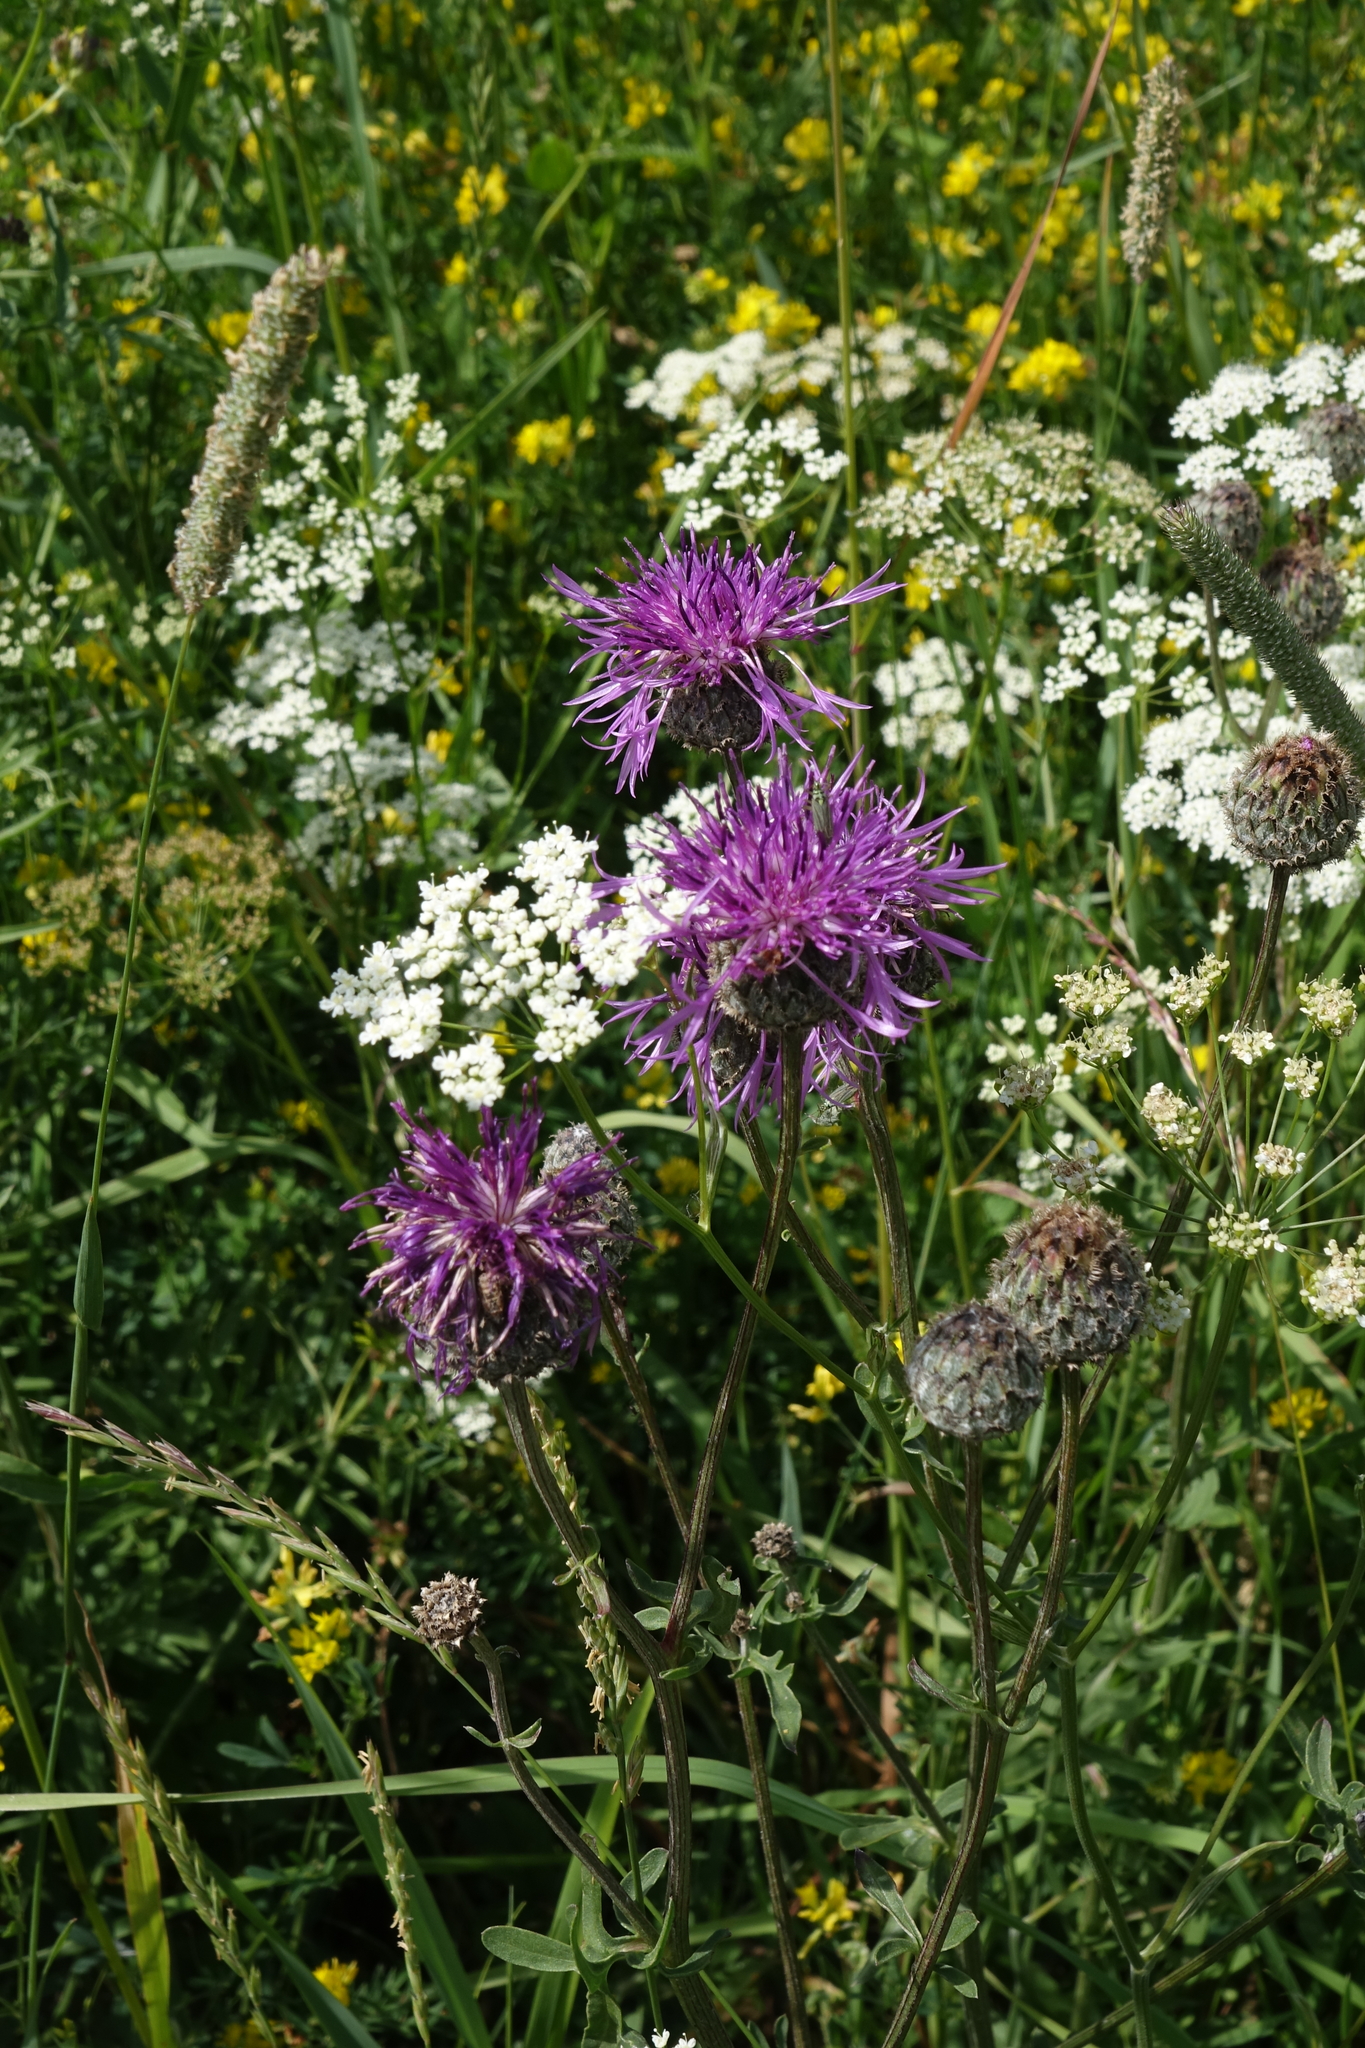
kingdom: Plantae
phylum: Tracheophyta
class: Magnoliopsida
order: Asterales
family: Asteraceae
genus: Centaurea
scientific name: Centaurea scabiosa
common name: Greater knapweed
